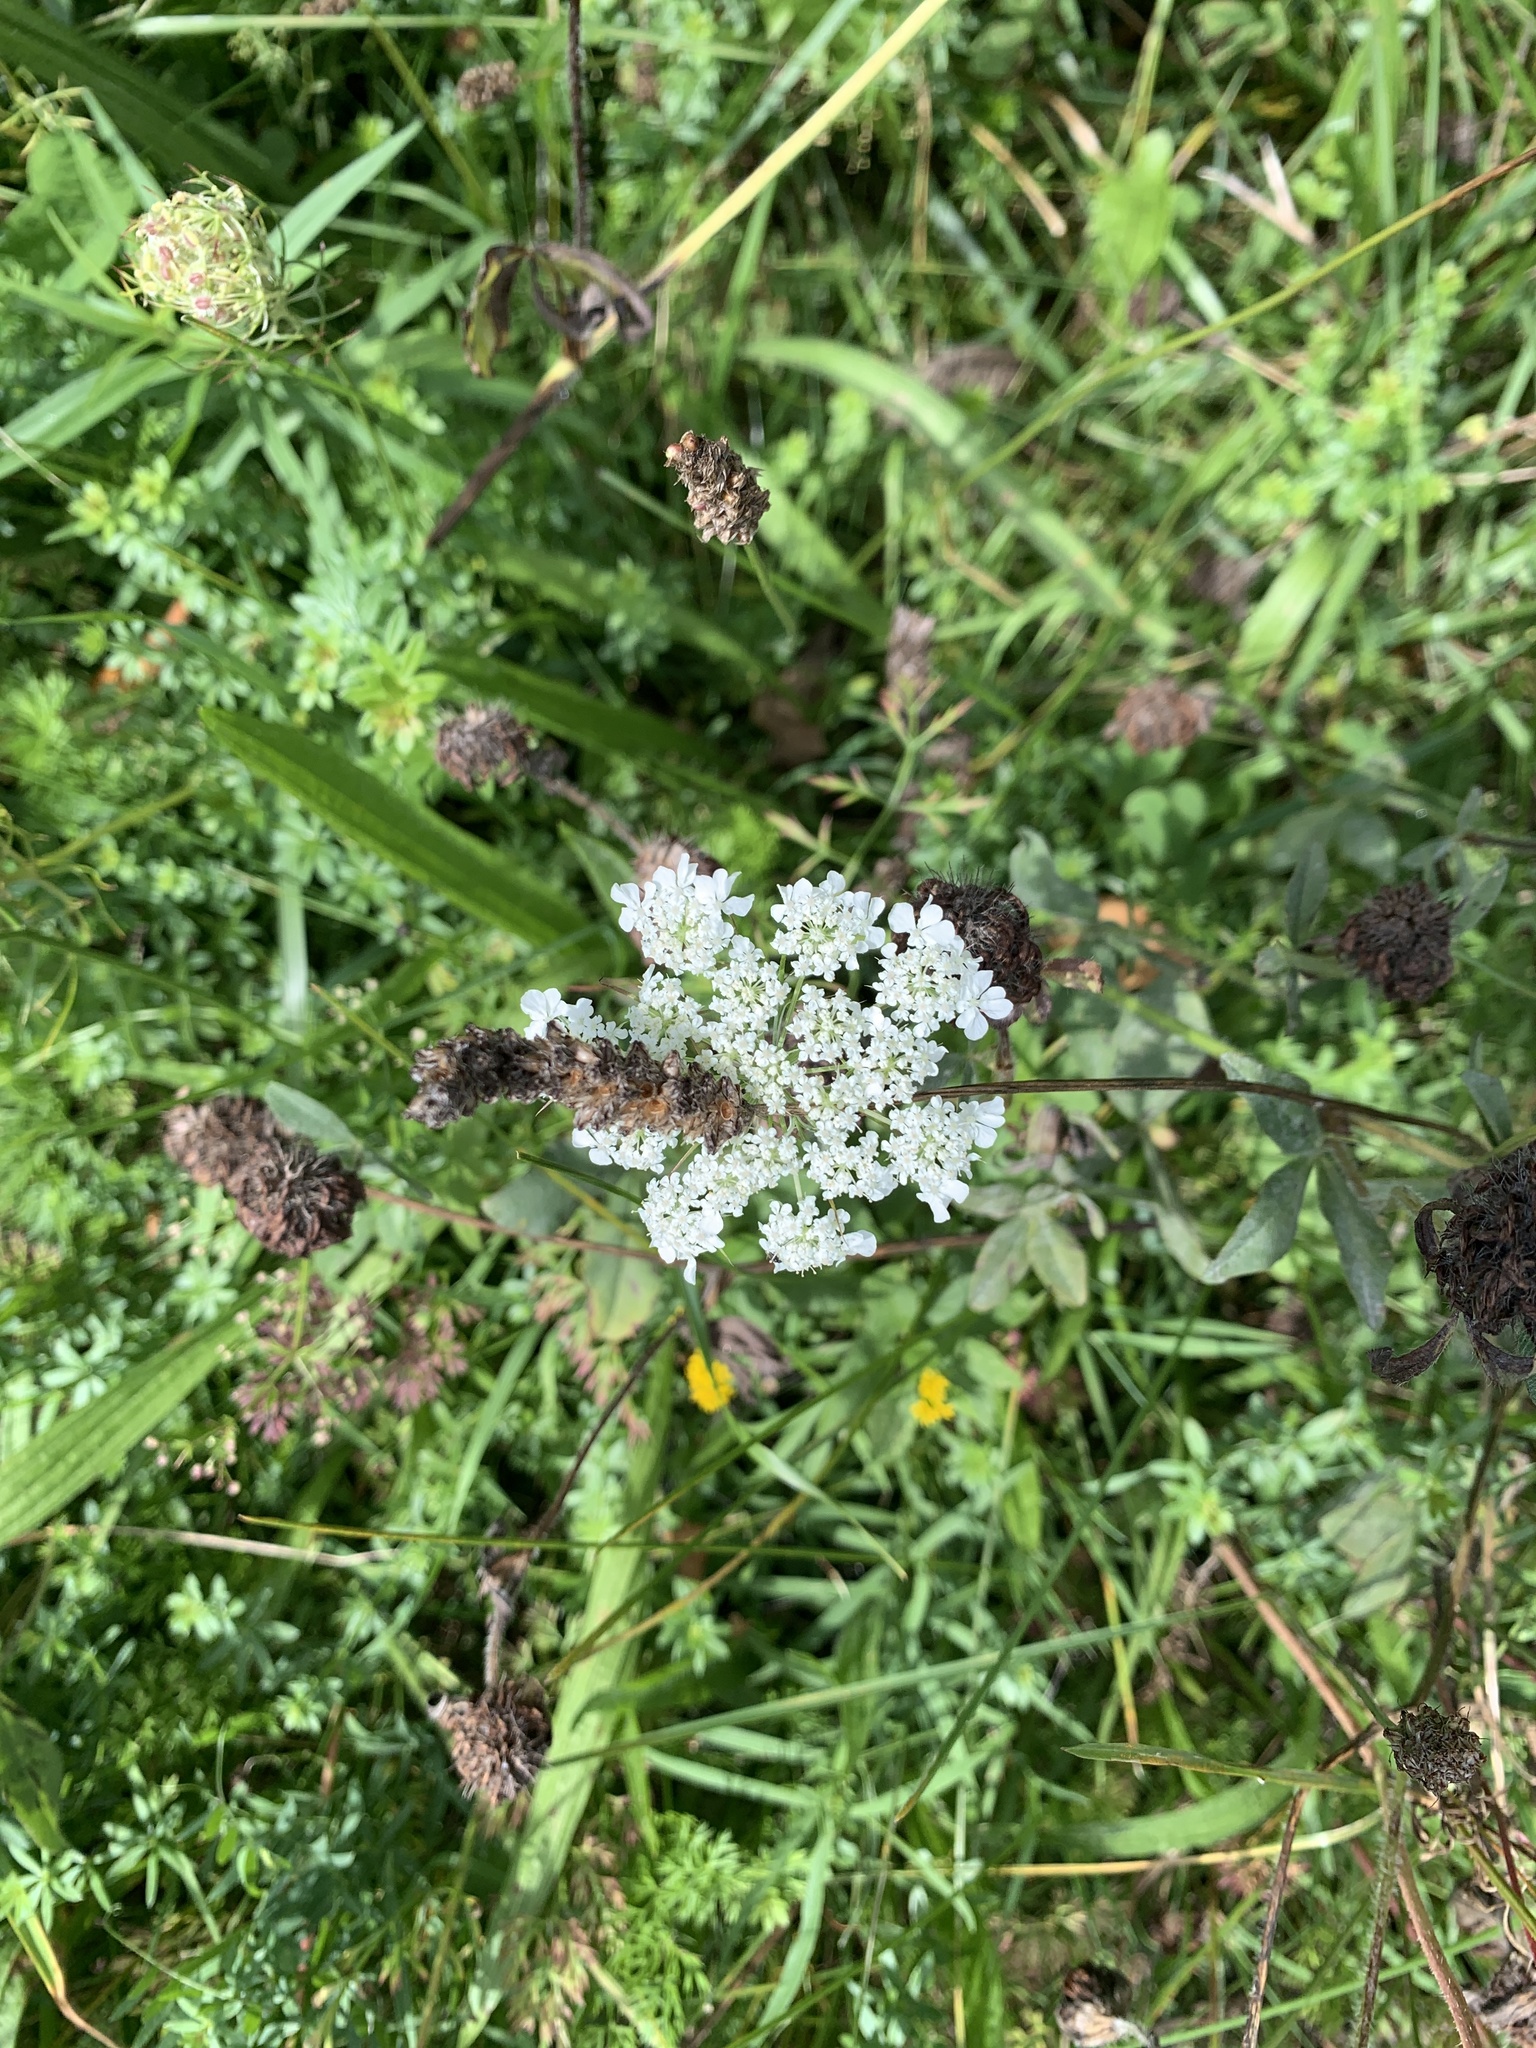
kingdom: Plantae
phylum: Tracheophyta
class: Magnoliopsida
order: Apiales
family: Apiaceae
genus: Daucus
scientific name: Daucus carota
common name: Wild carrot
